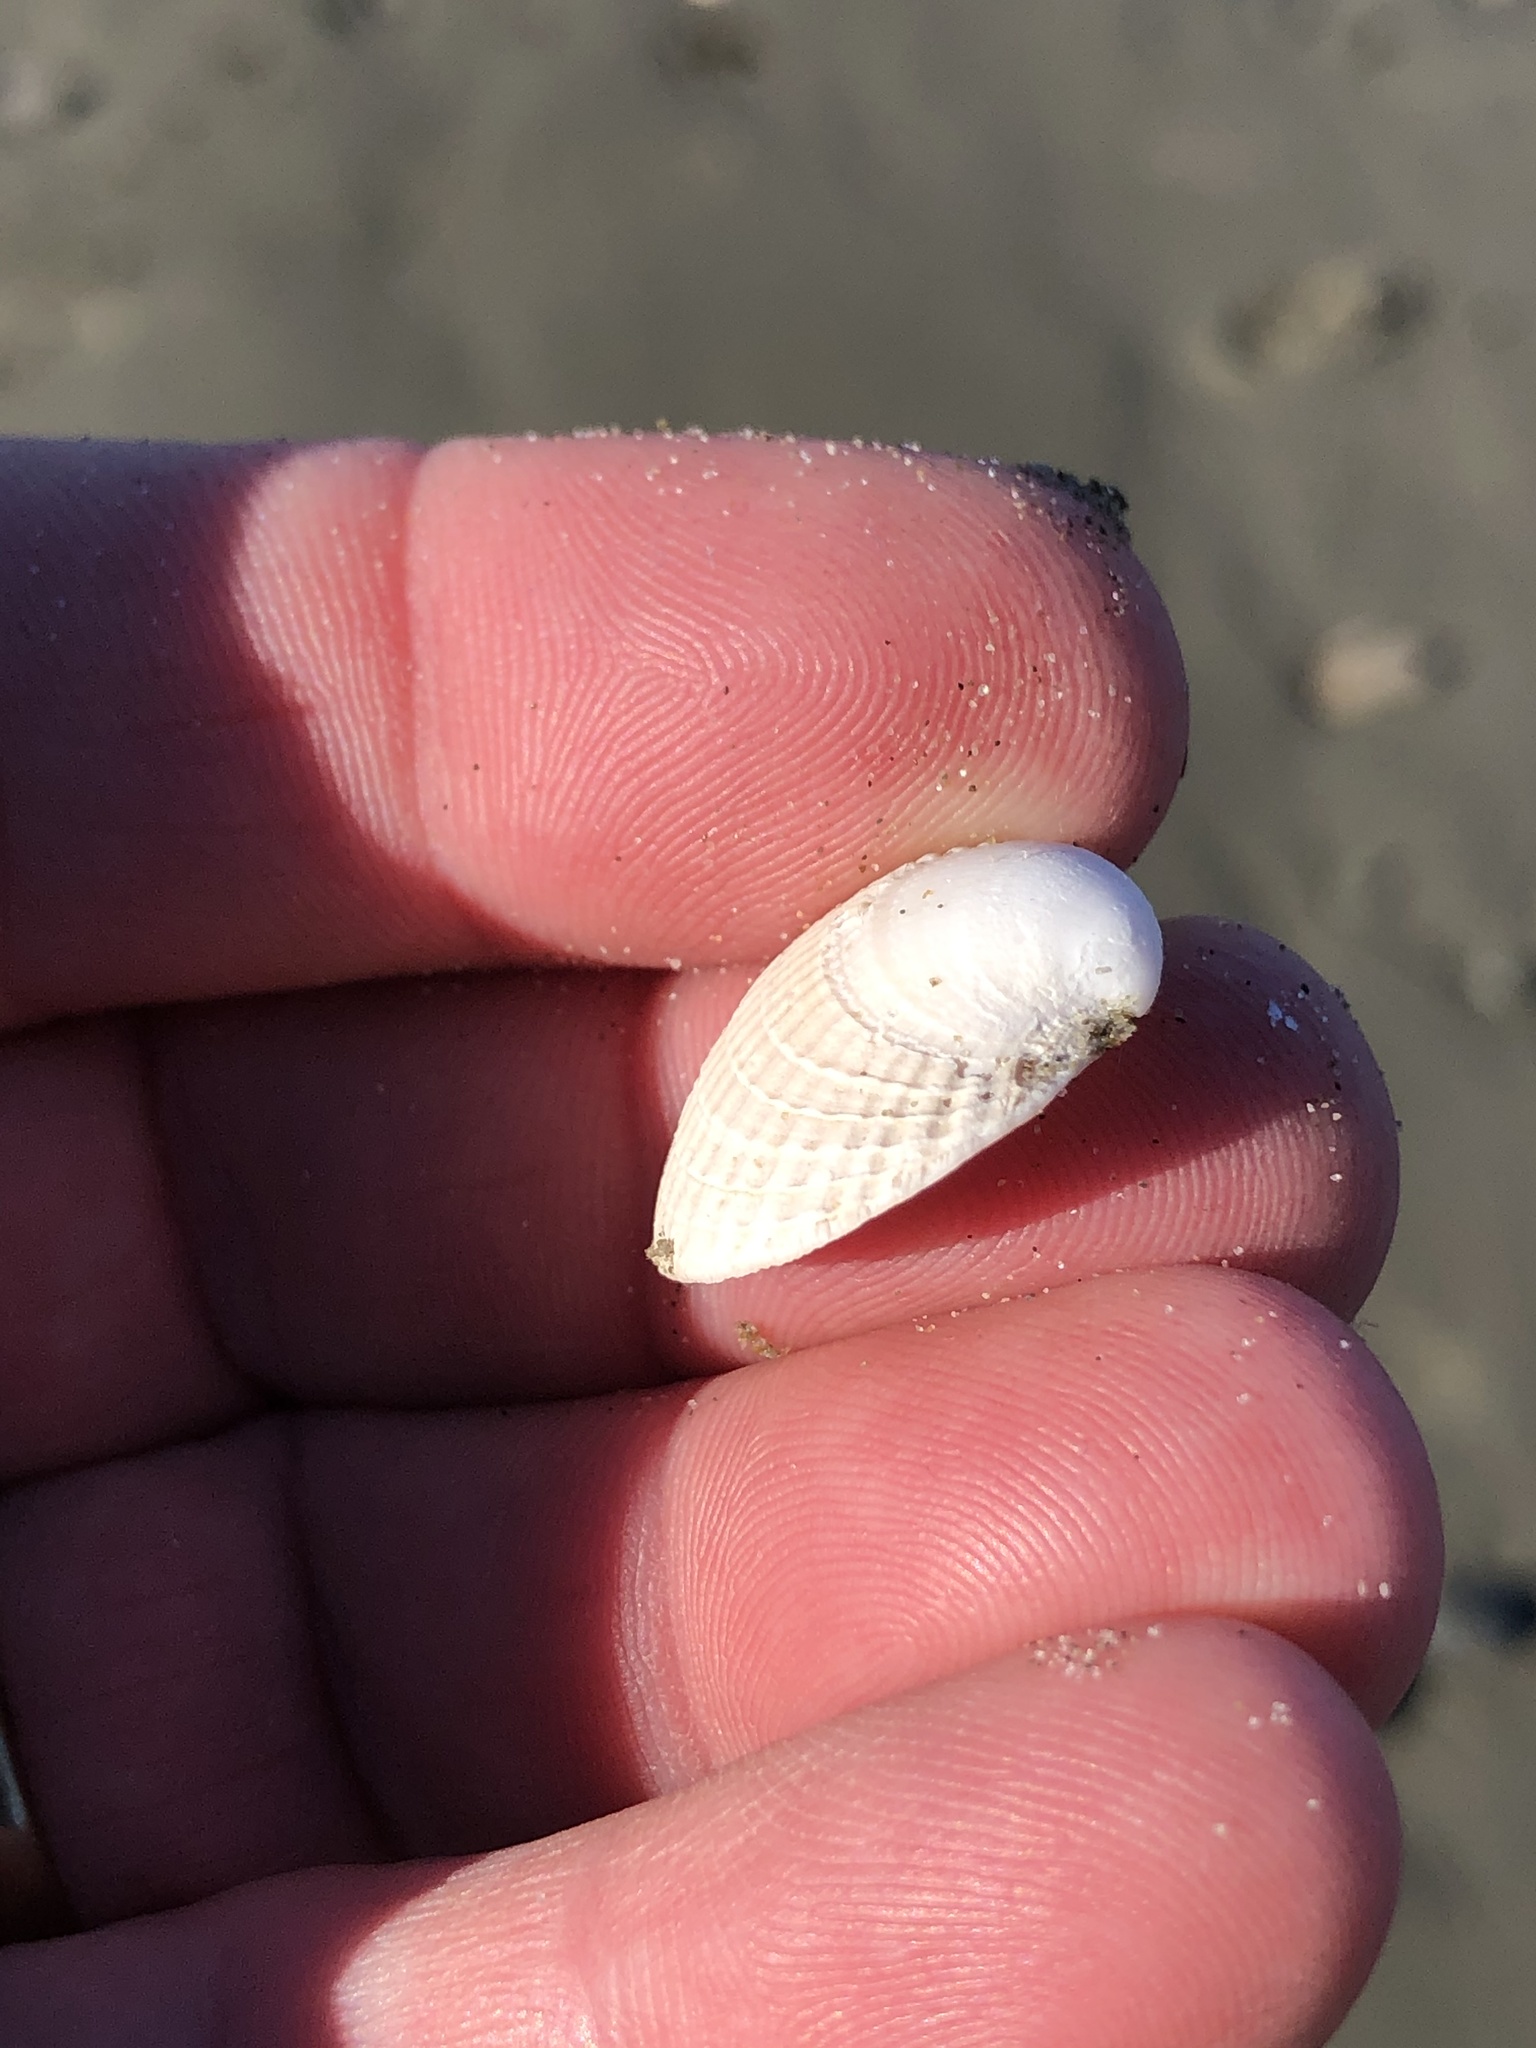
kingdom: Animalia
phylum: Mollusca
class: Bivalvia
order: Venerida
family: Veneridae
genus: Austrovenus
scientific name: Austrovenus stutchburyi
